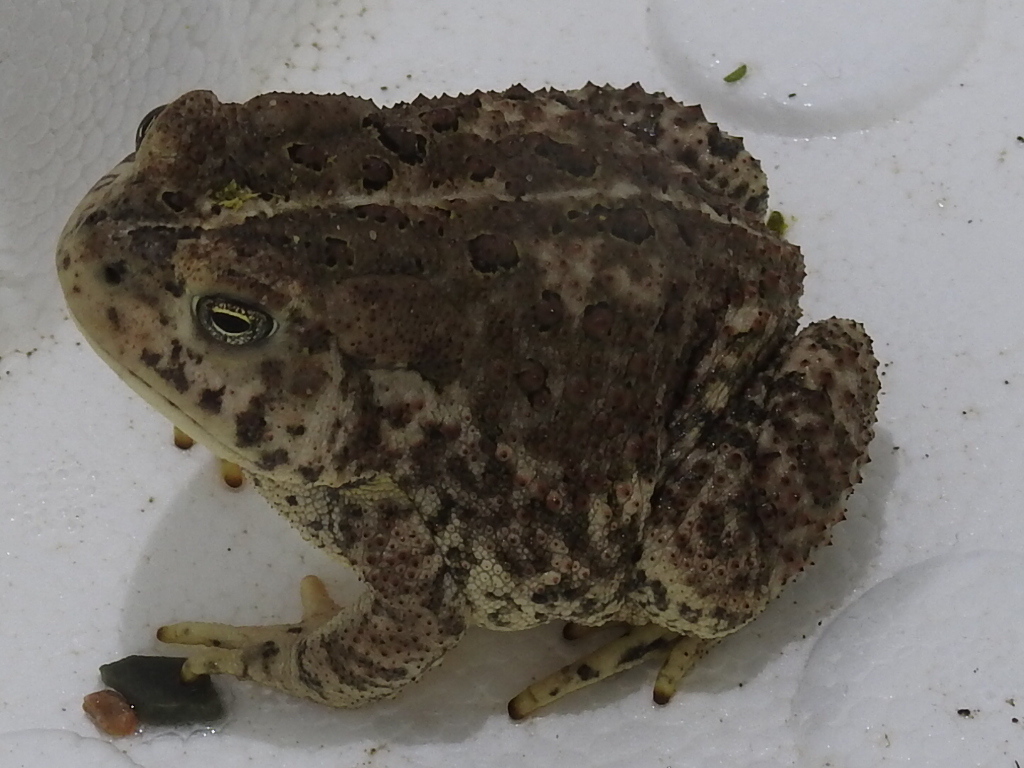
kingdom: Animalia
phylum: Chordata
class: Amphibia
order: Anura
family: Bufonidae
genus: Anaxyrus
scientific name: Anaxyrus woodhousii
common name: Woodhouse's toad
